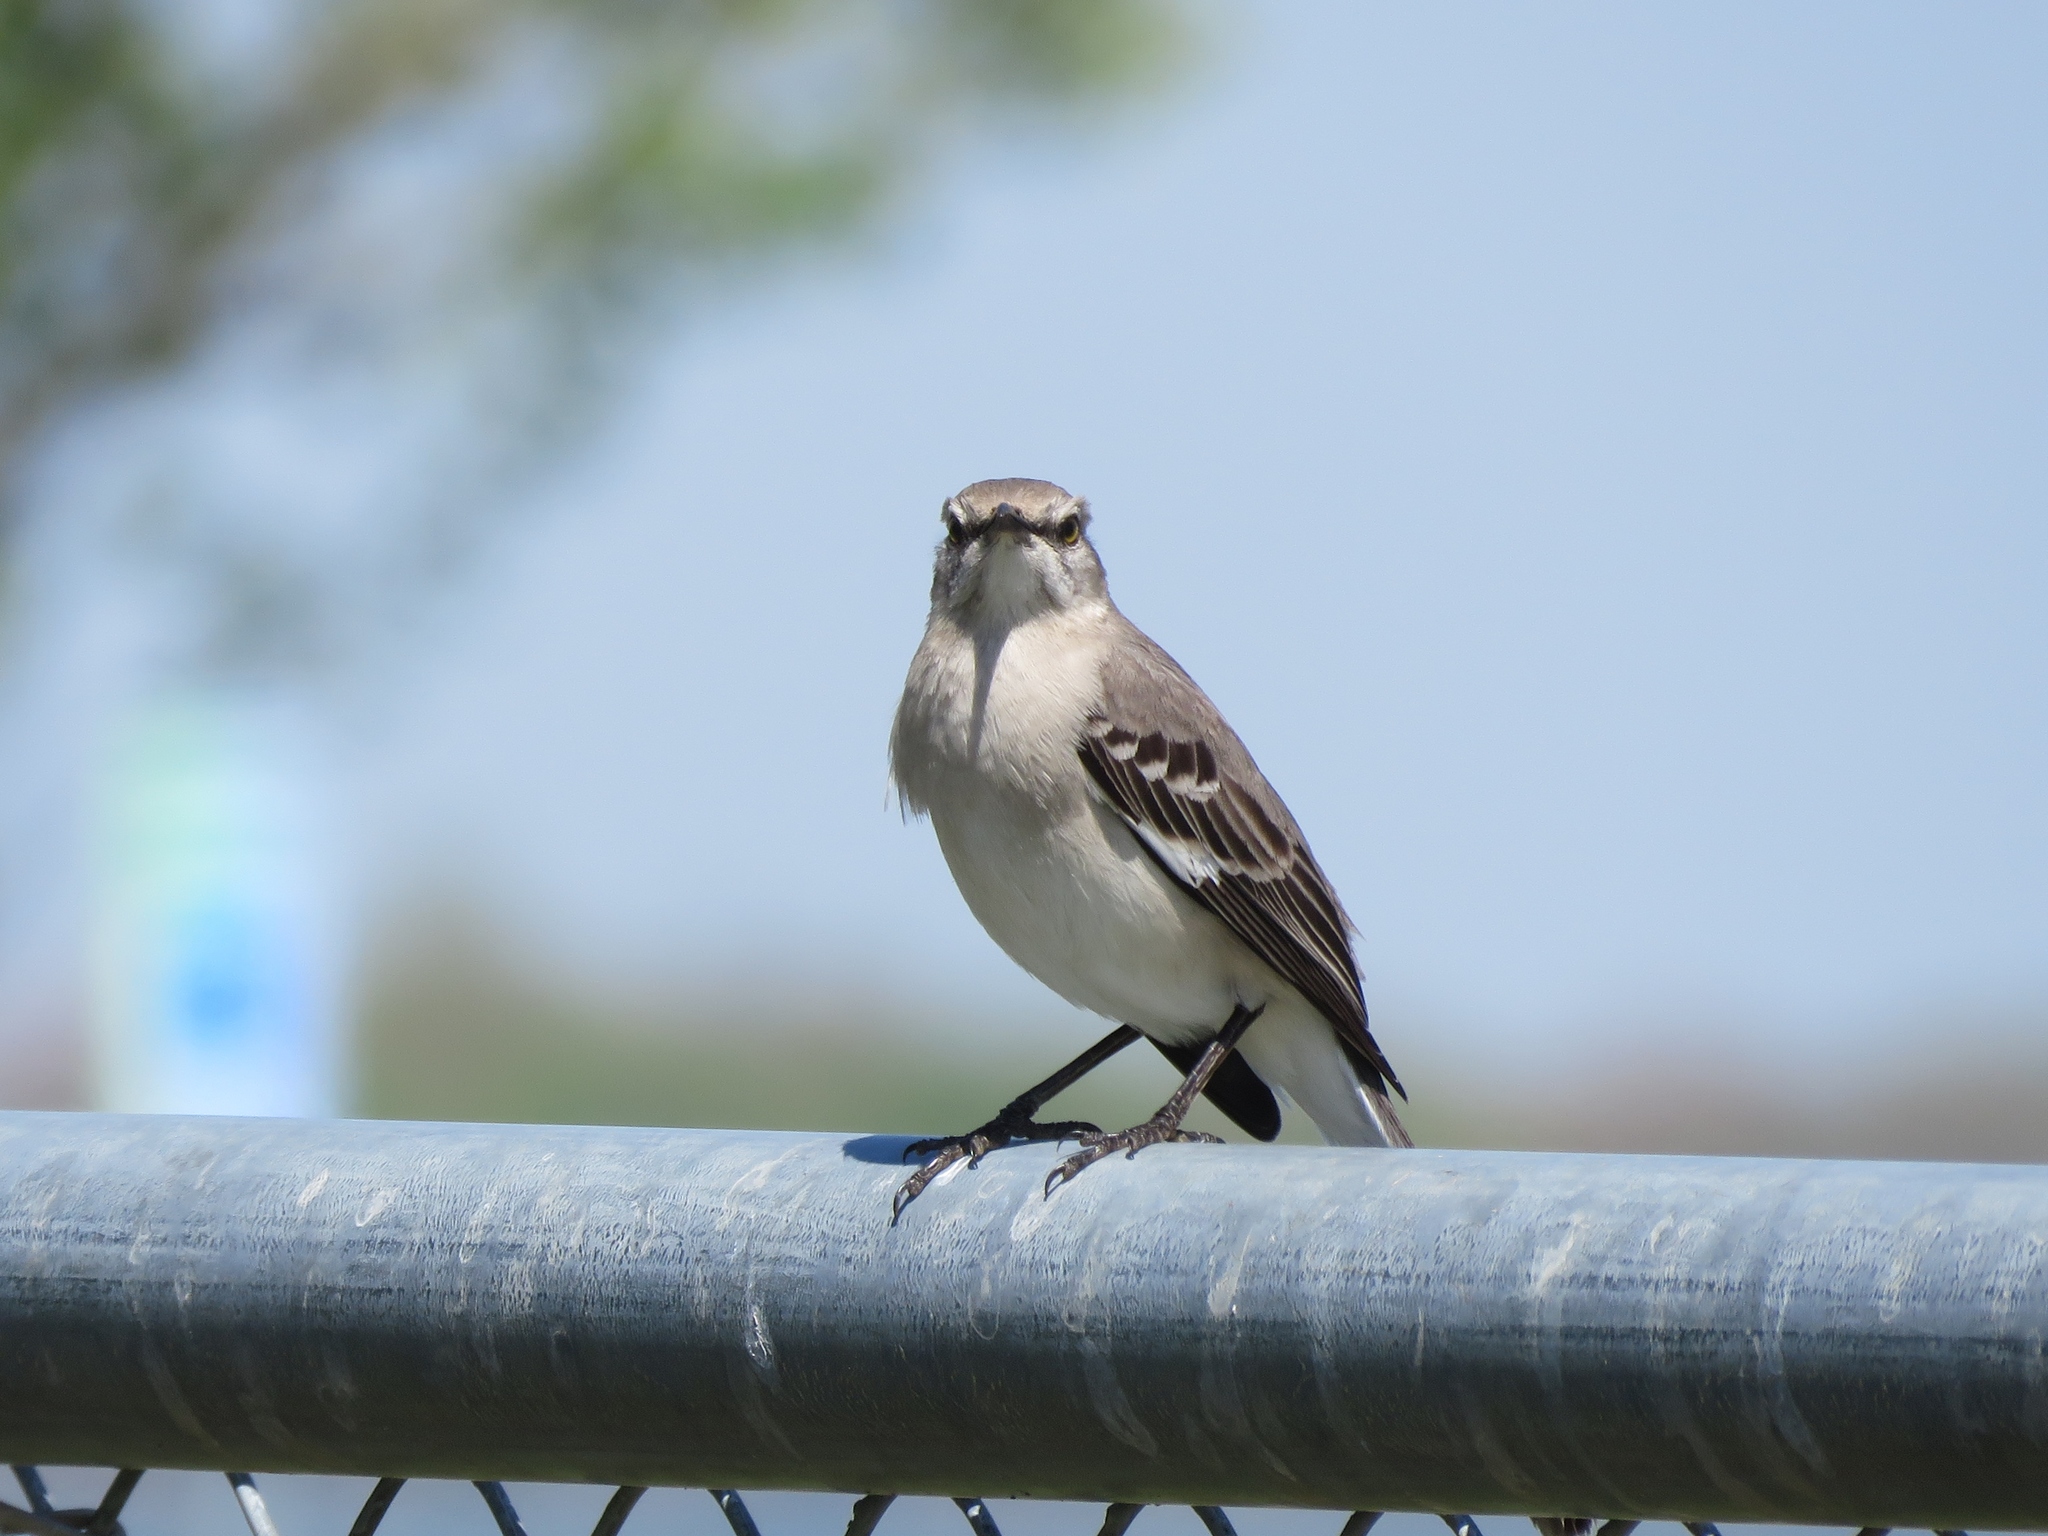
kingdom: Animalia
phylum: Chordata
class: Aves
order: Passeriformes
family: Mimidae
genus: Mimus
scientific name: Mimus polyglottos
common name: Northern mockingbird
